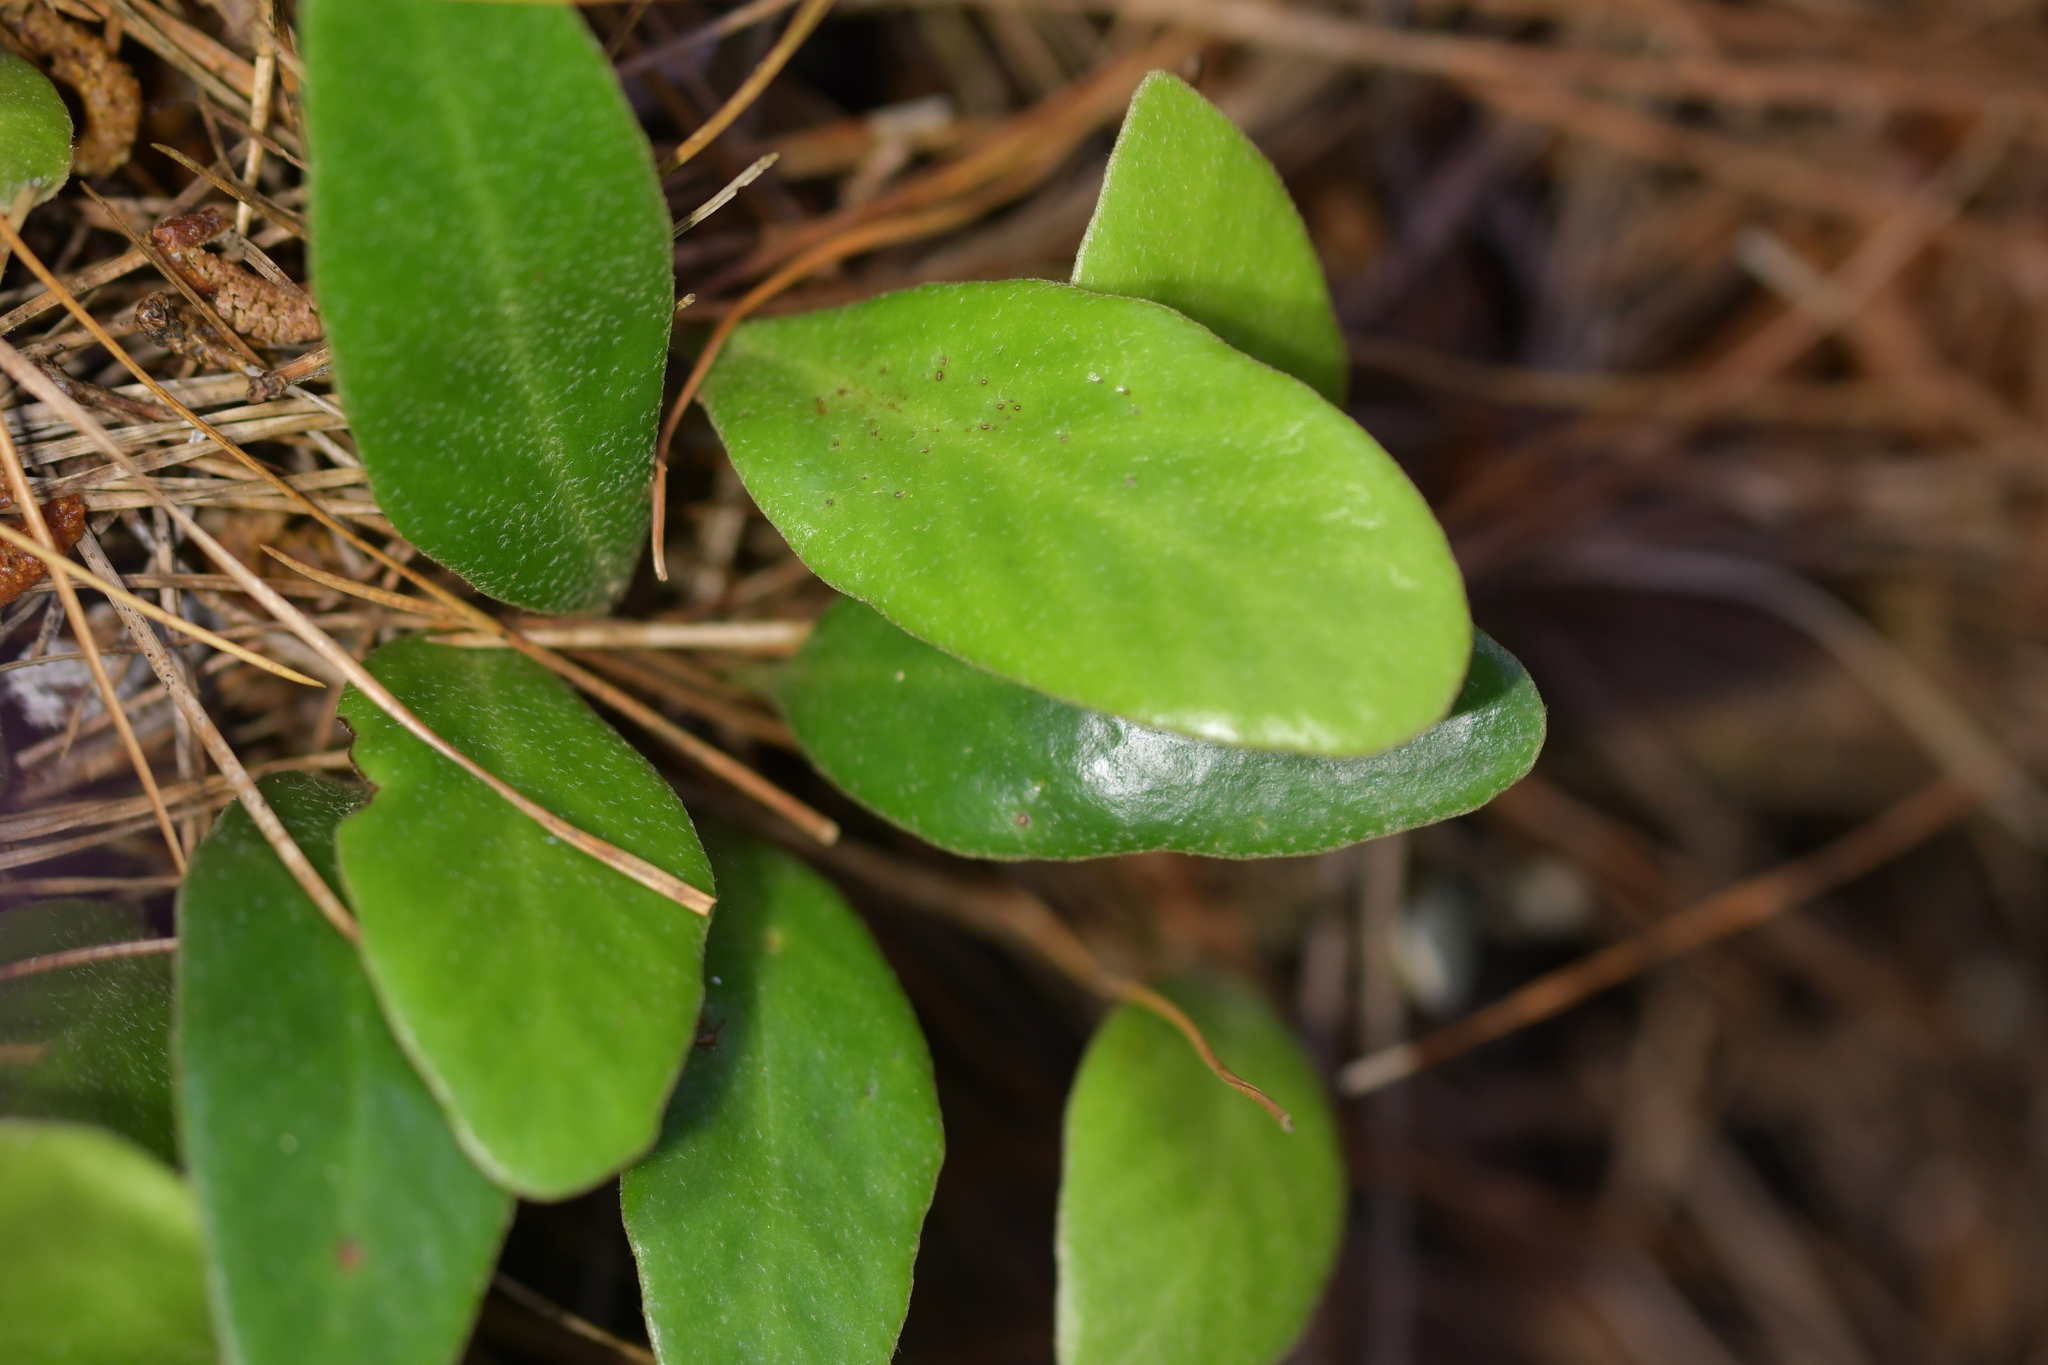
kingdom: Plantae
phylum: Tracheophyta
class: Polypodiopsida
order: Polypodiales
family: Polypodiaceae
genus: Pyrrosia
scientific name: Pyrrosia eleagnifolia
